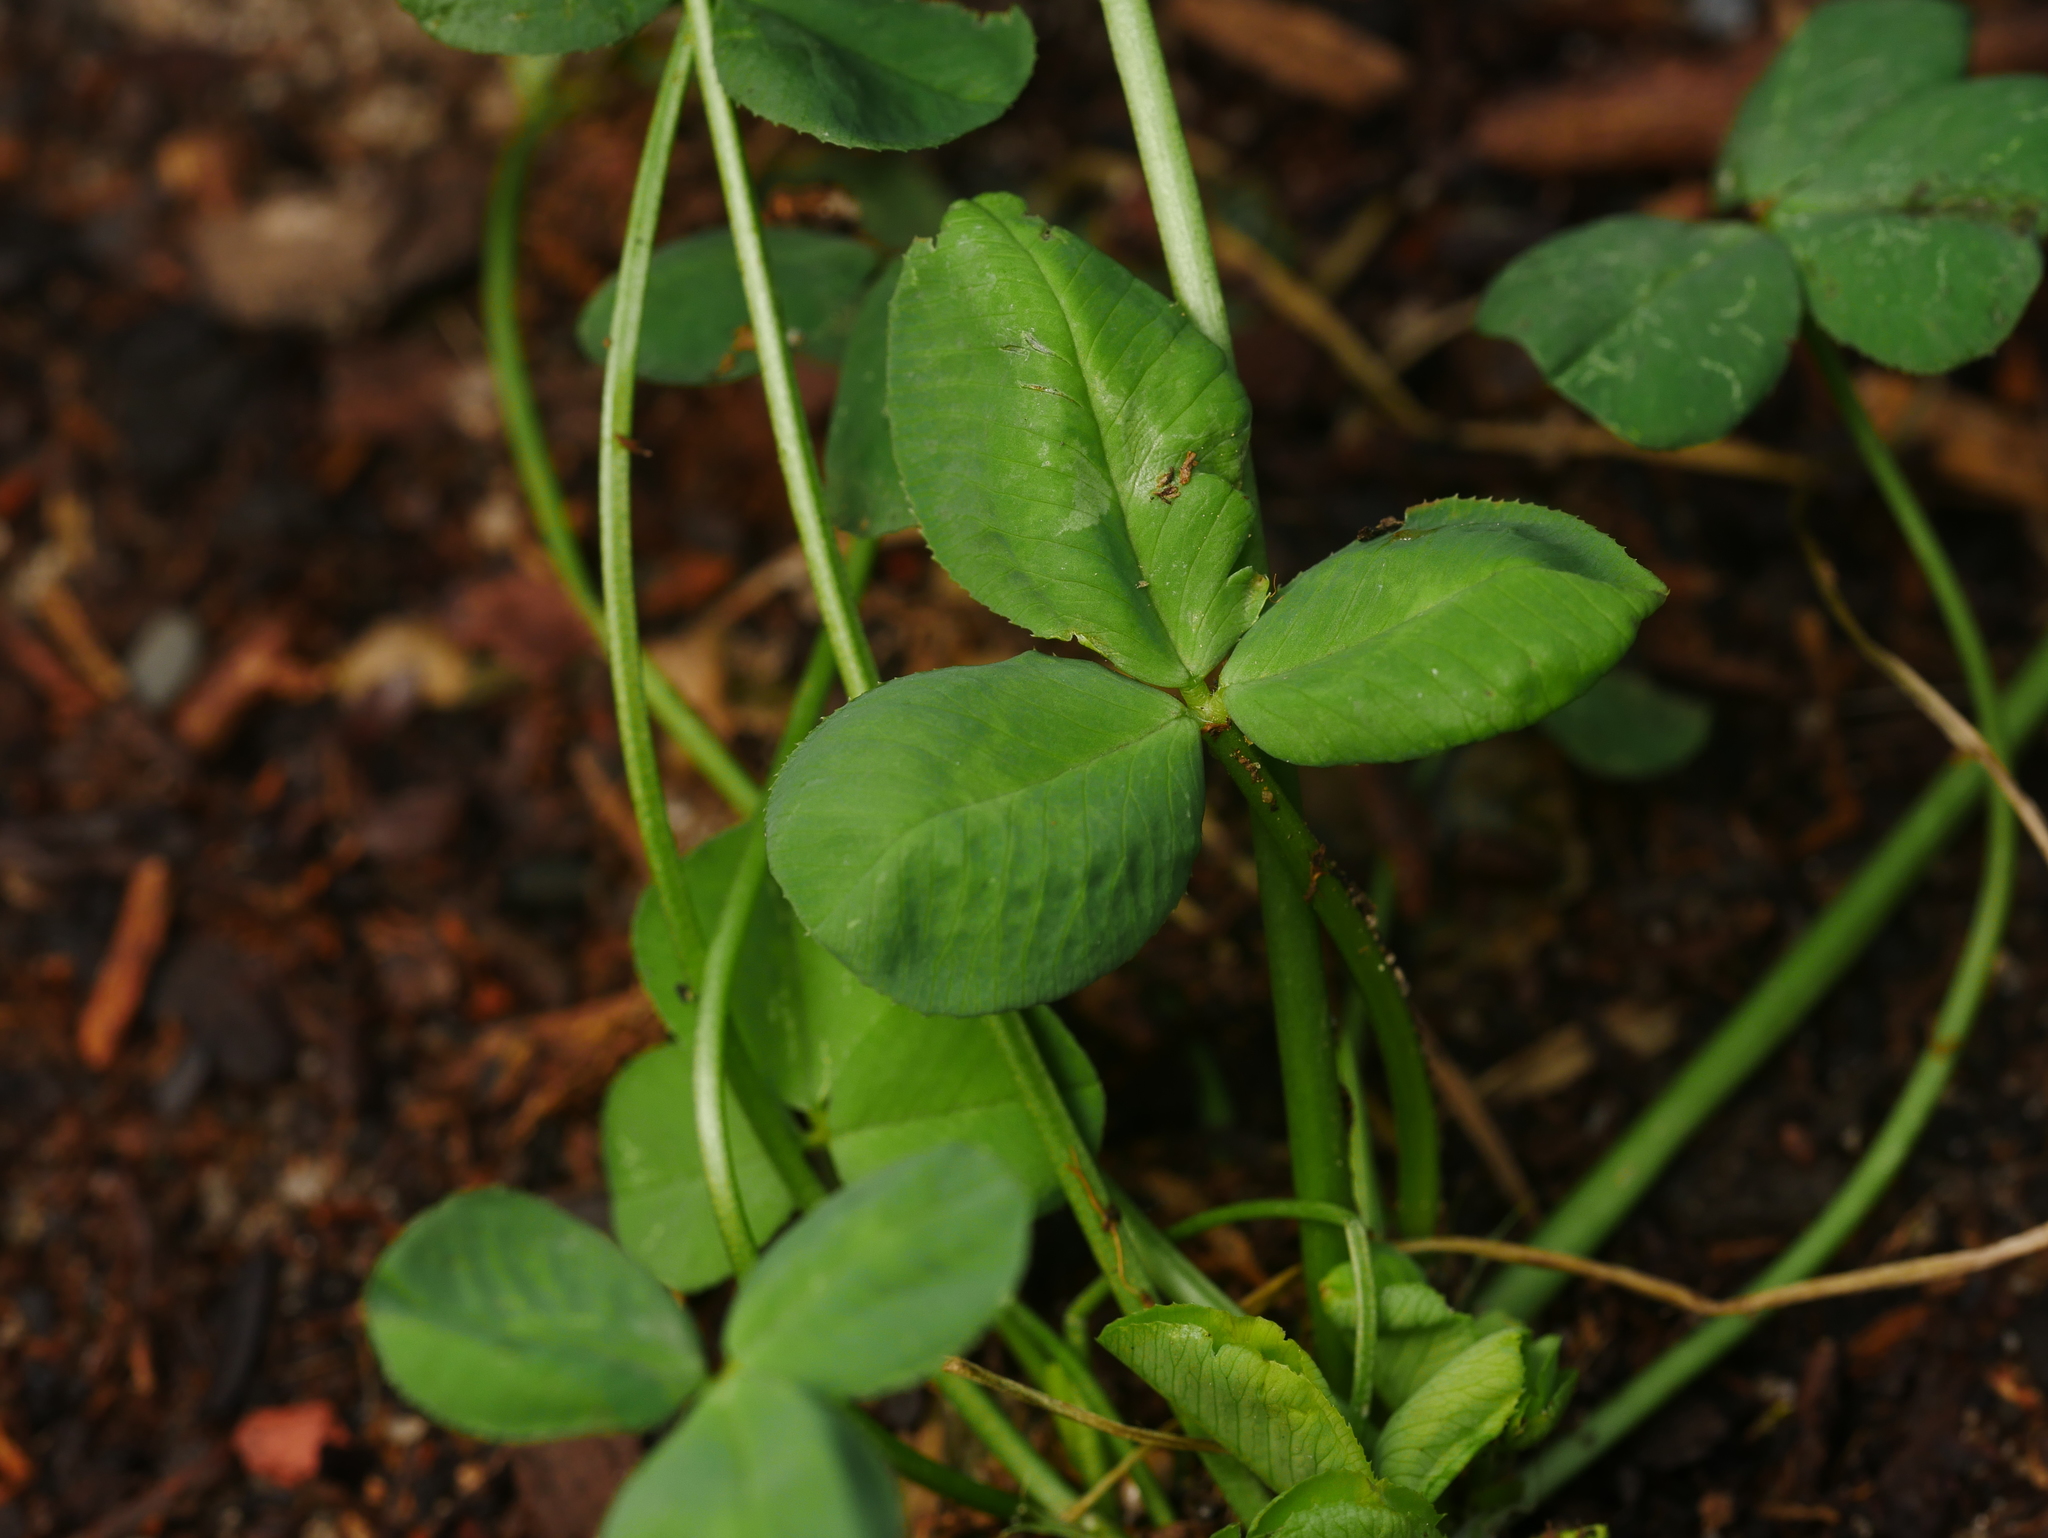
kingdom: Plantae
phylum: Tracheophyta
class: Magnoliopsida
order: Fabales
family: Fabaceae
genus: Trifolium
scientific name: Trifolium repens
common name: White clover
